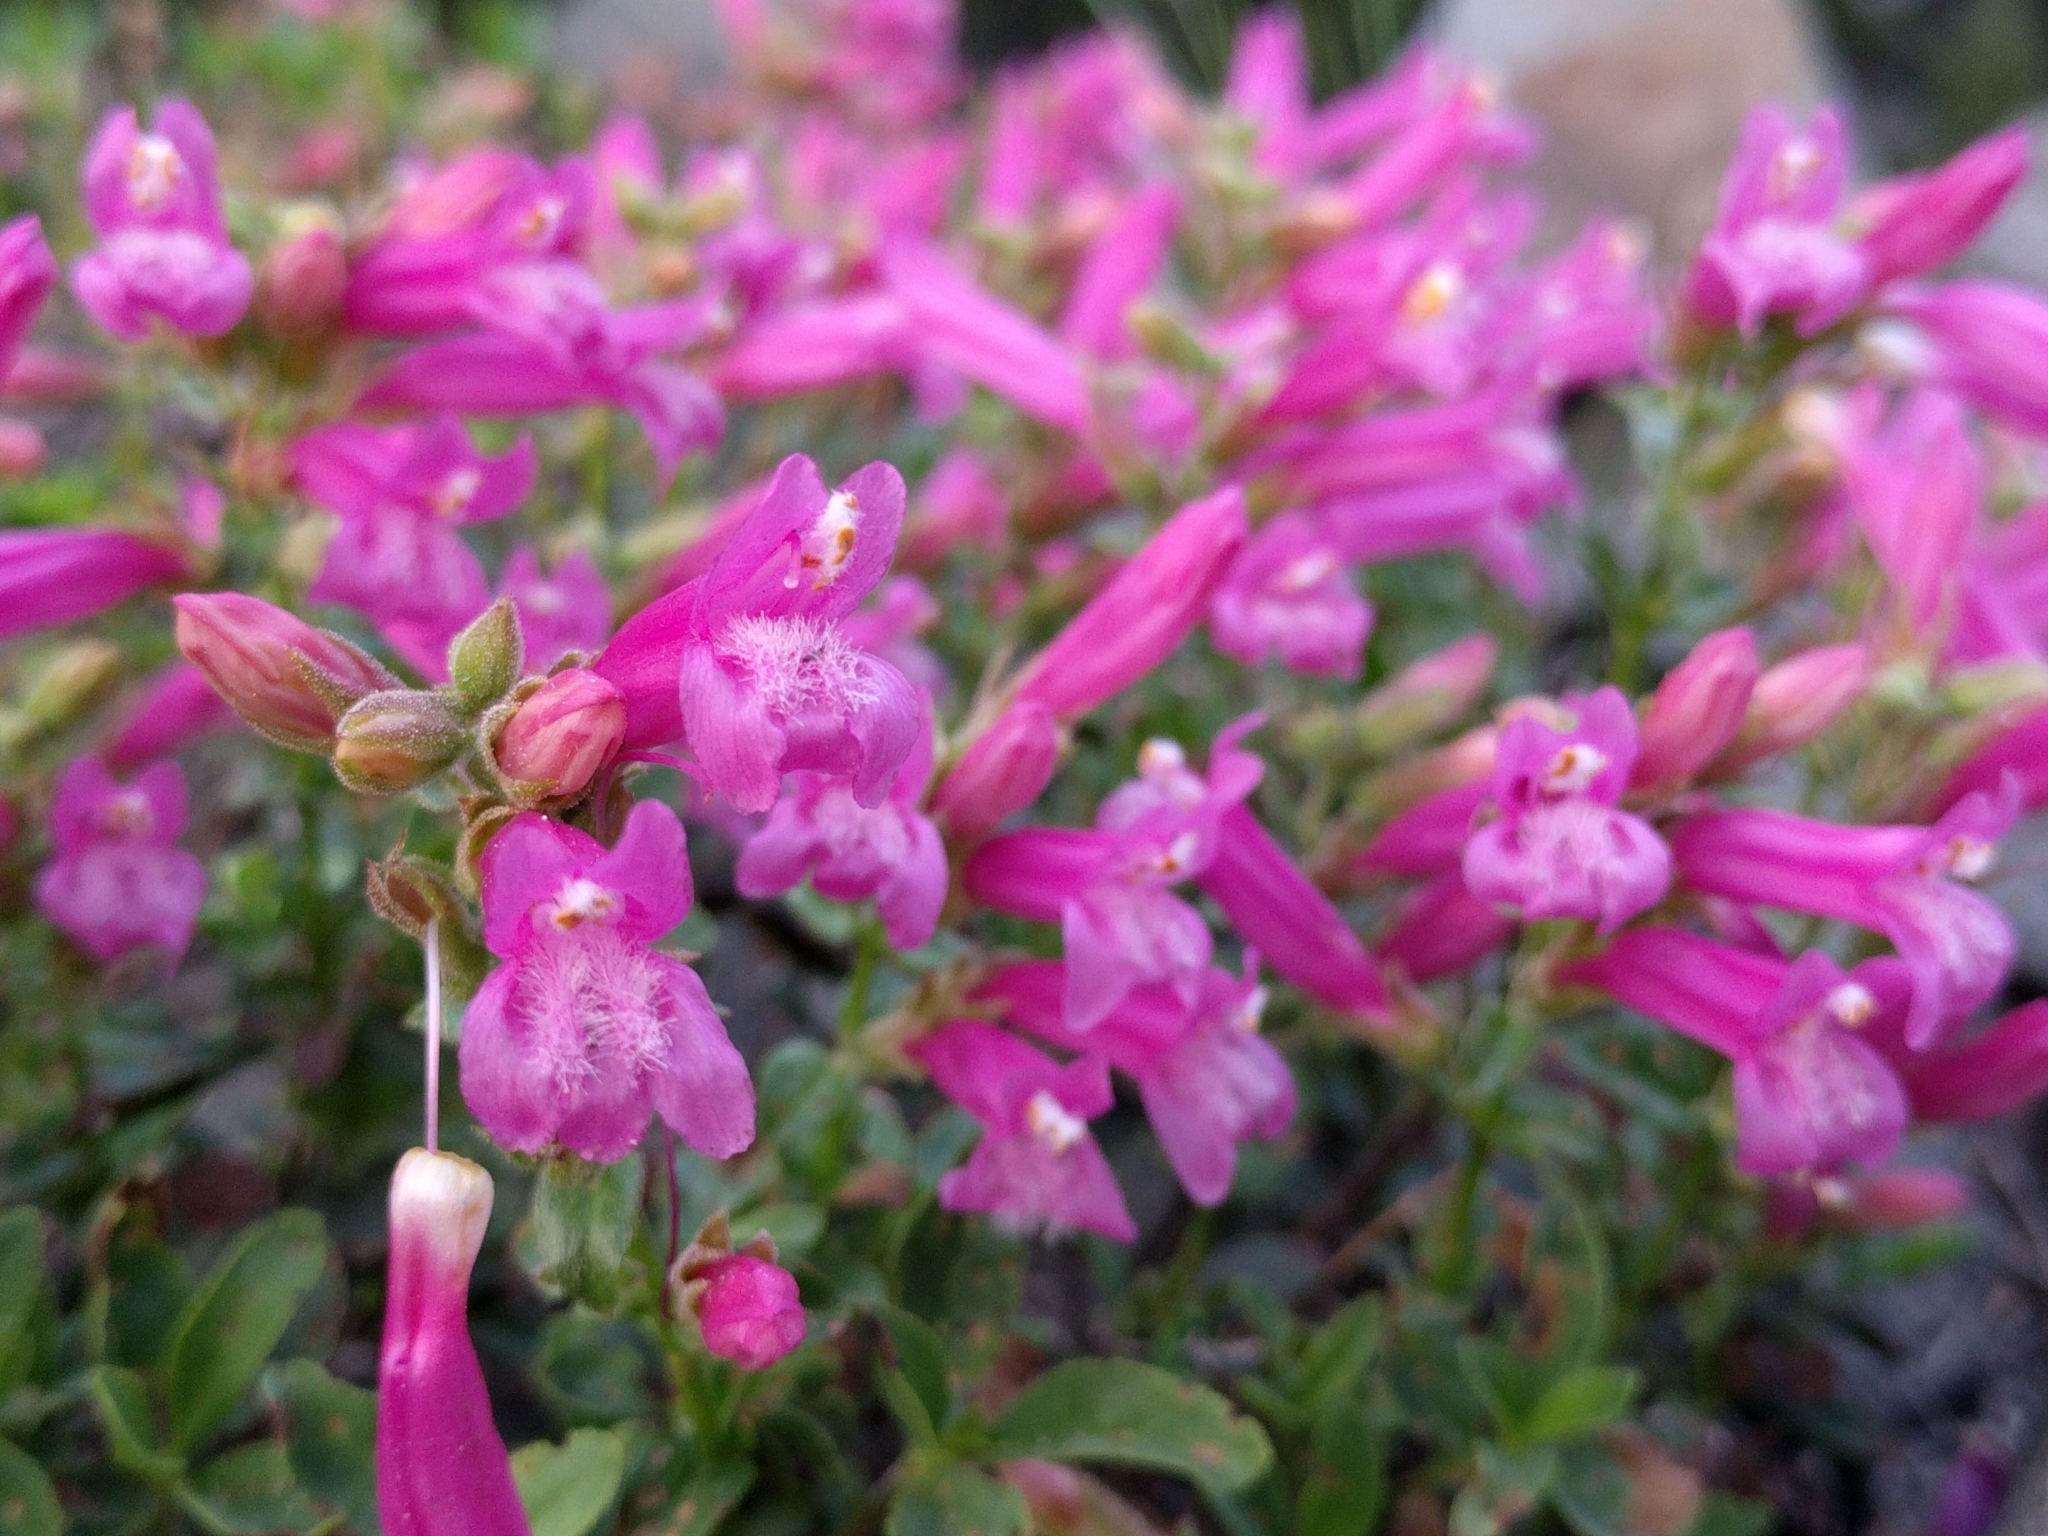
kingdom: Plantae
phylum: Tracheophyta
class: Magnoliopsida
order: Lamiales
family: Plantaginaceae
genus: Penstemon
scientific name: Penstemon newberryi
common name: Mountain-pride
